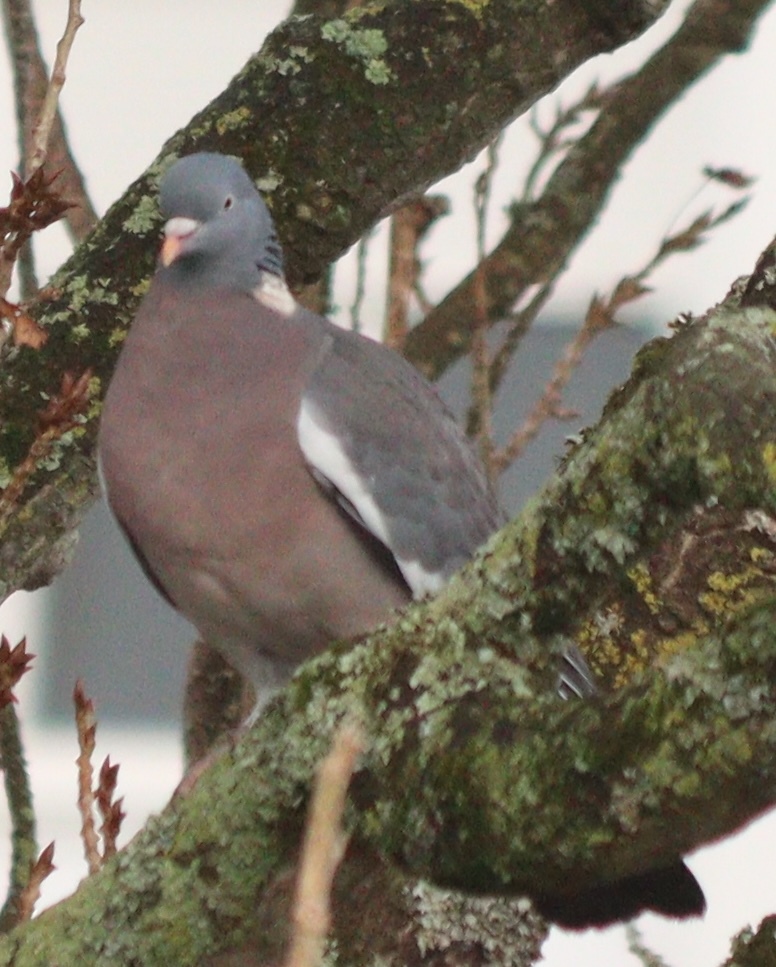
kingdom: Animalia
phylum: Chordata
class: Aves
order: Columbiformes
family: Columbidae
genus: Columba
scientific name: Columba palumbus
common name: Common wood pigeon
